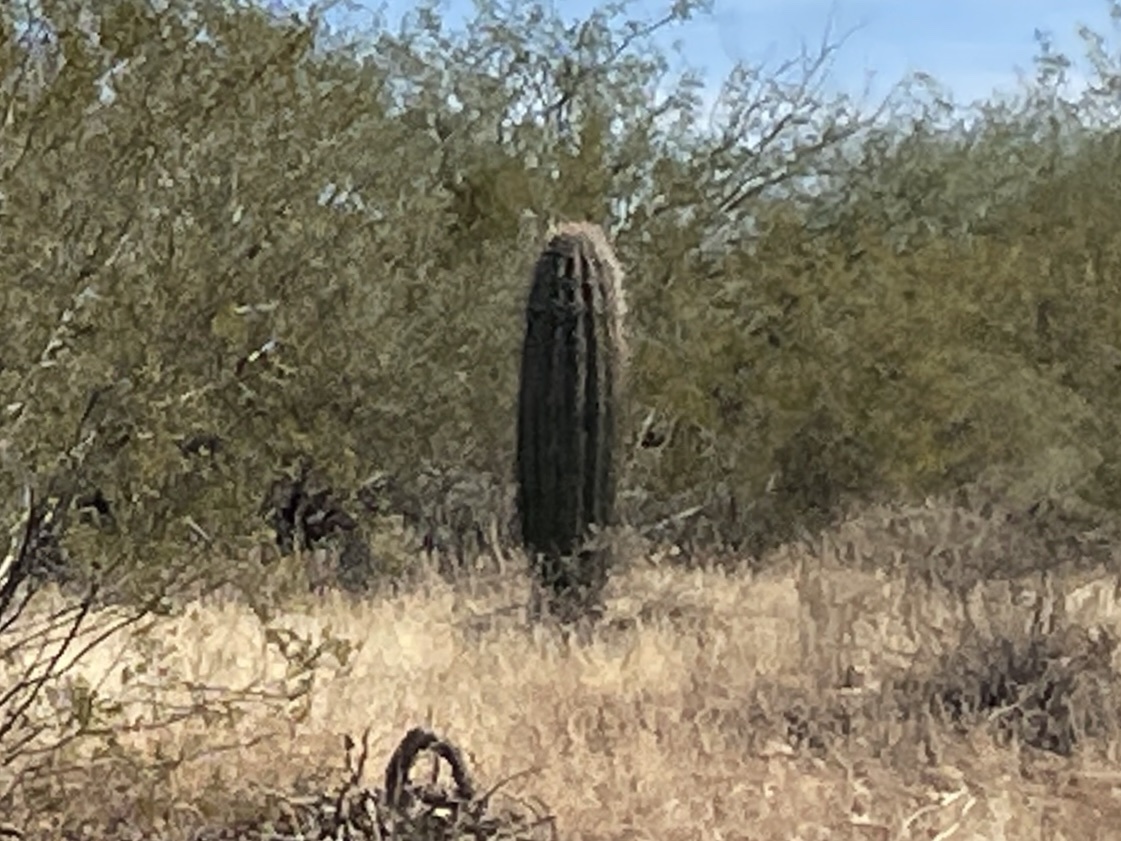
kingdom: Plantae
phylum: Tracheophyta
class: Magnoliopsida
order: Caryophyllales
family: Cactaceae
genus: Carnegiea
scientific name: Carnegiea gigantea
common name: Saguaro
